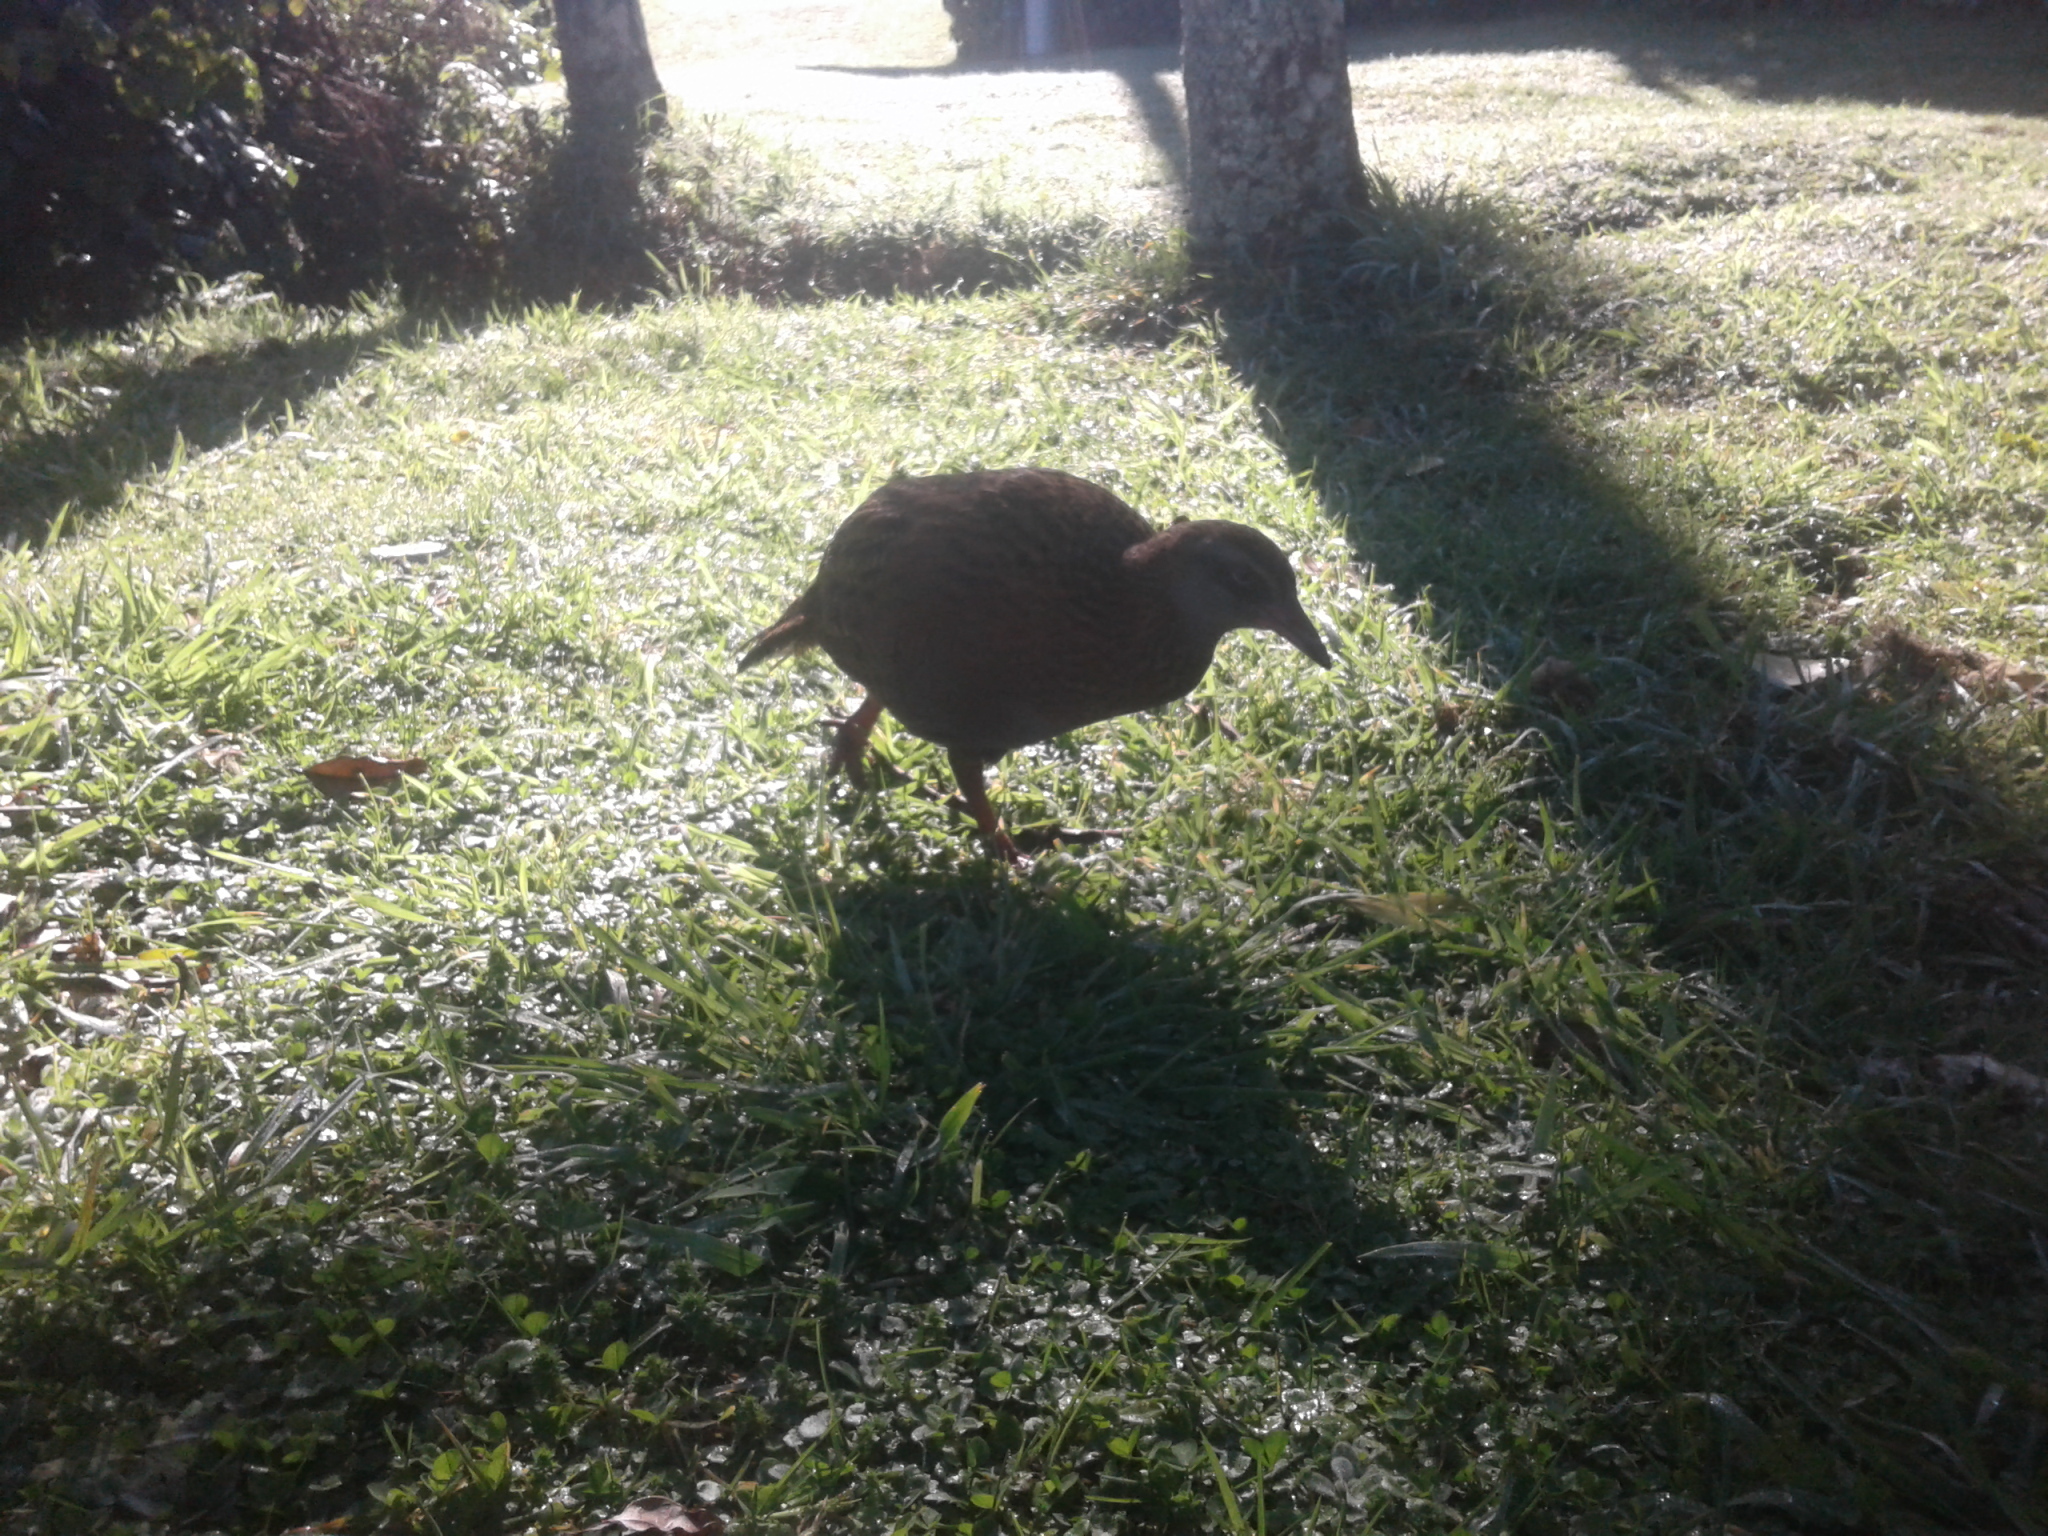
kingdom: Animalia
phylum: Chordata
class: Aves
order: Gruiformes
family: Rallidae
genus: Gallirallus
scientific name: Gallirallus australis
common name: Weka
